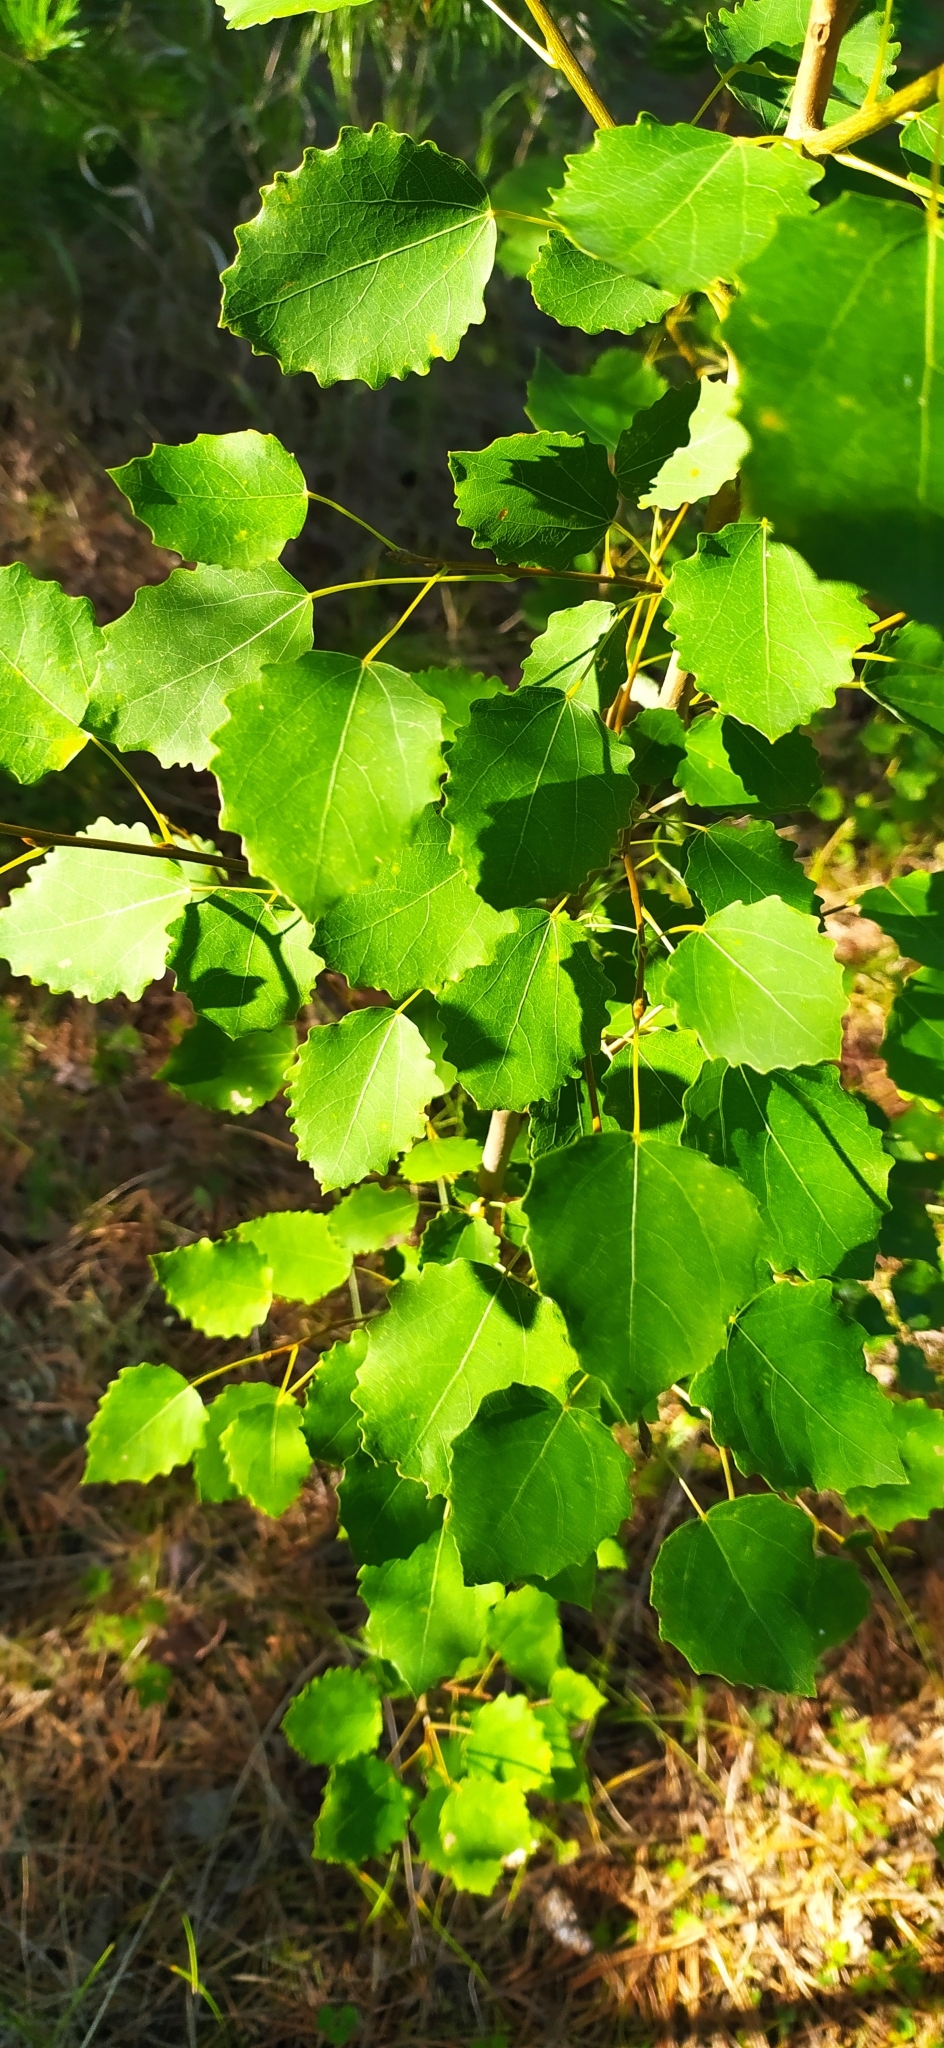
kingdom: Plantae
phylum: Tracheophyta
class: Magnoliopsida
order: Malpighiales
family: Salicaceae
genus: Populus
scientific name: Populus tremula
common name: European aspen
